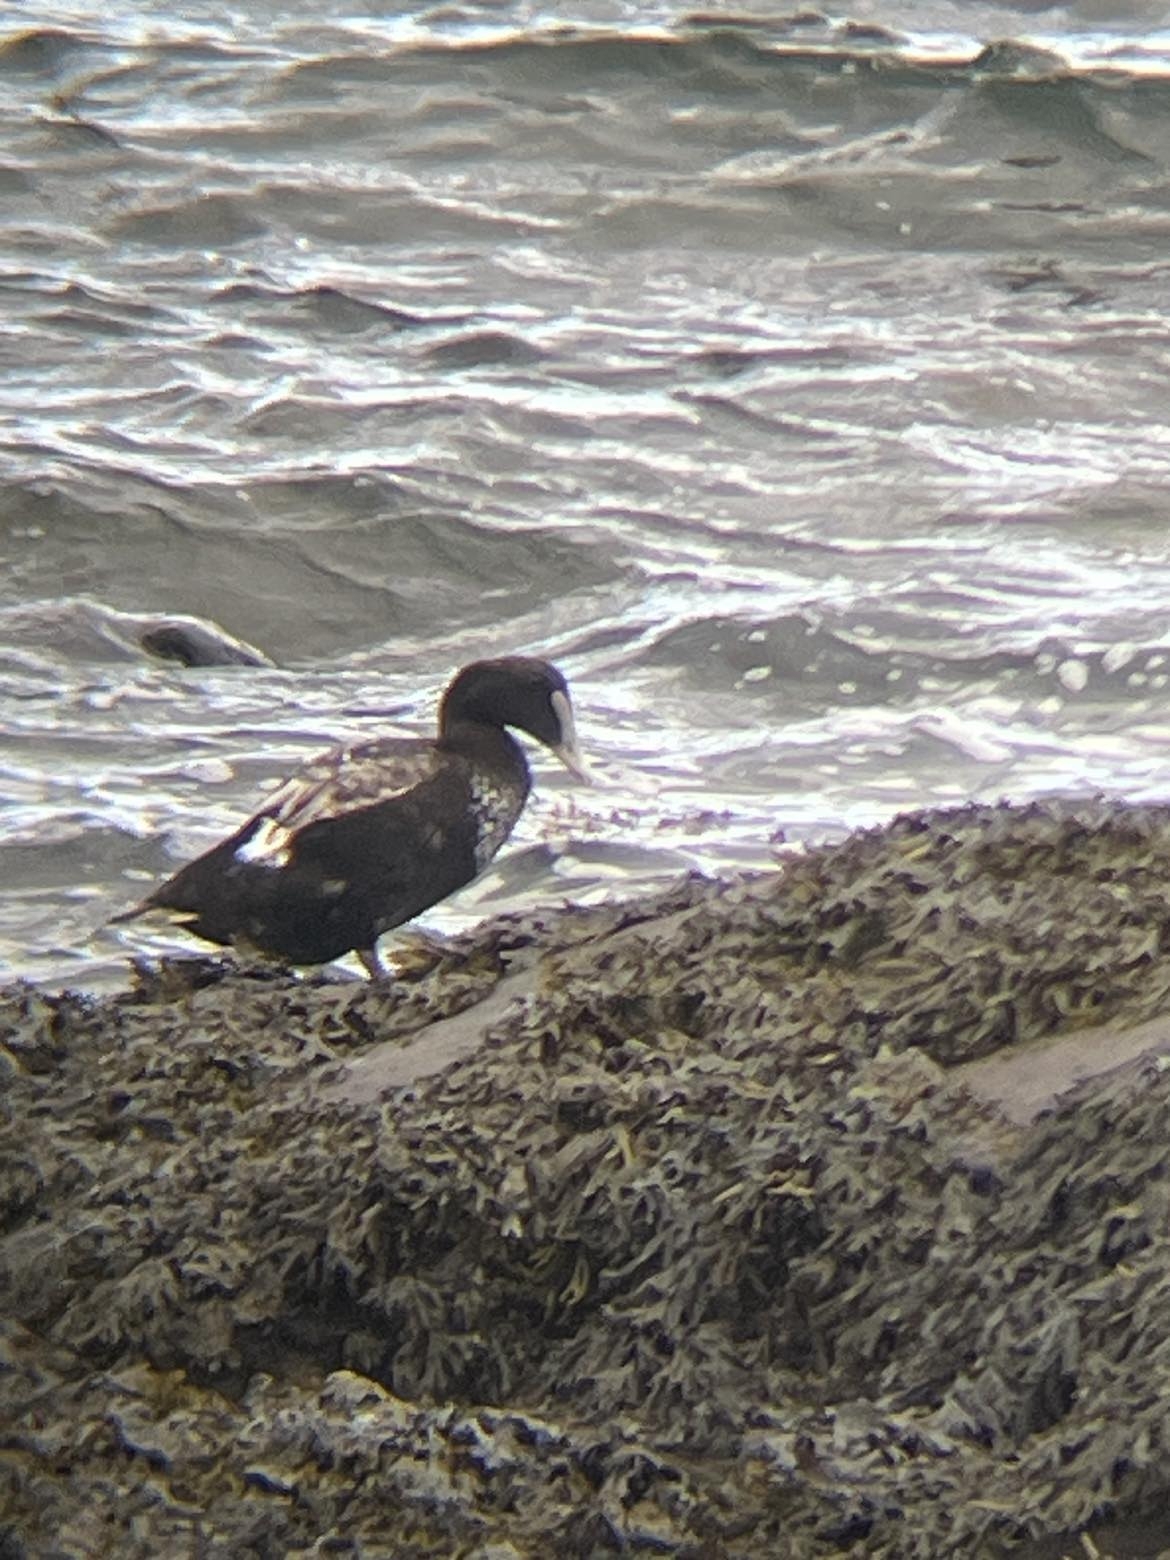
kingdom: Animalia
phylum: Chordata
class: Aves
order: Anseriformes
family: Anatidae
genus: Somateria
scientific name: Somateria mollissima
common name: Common eider
